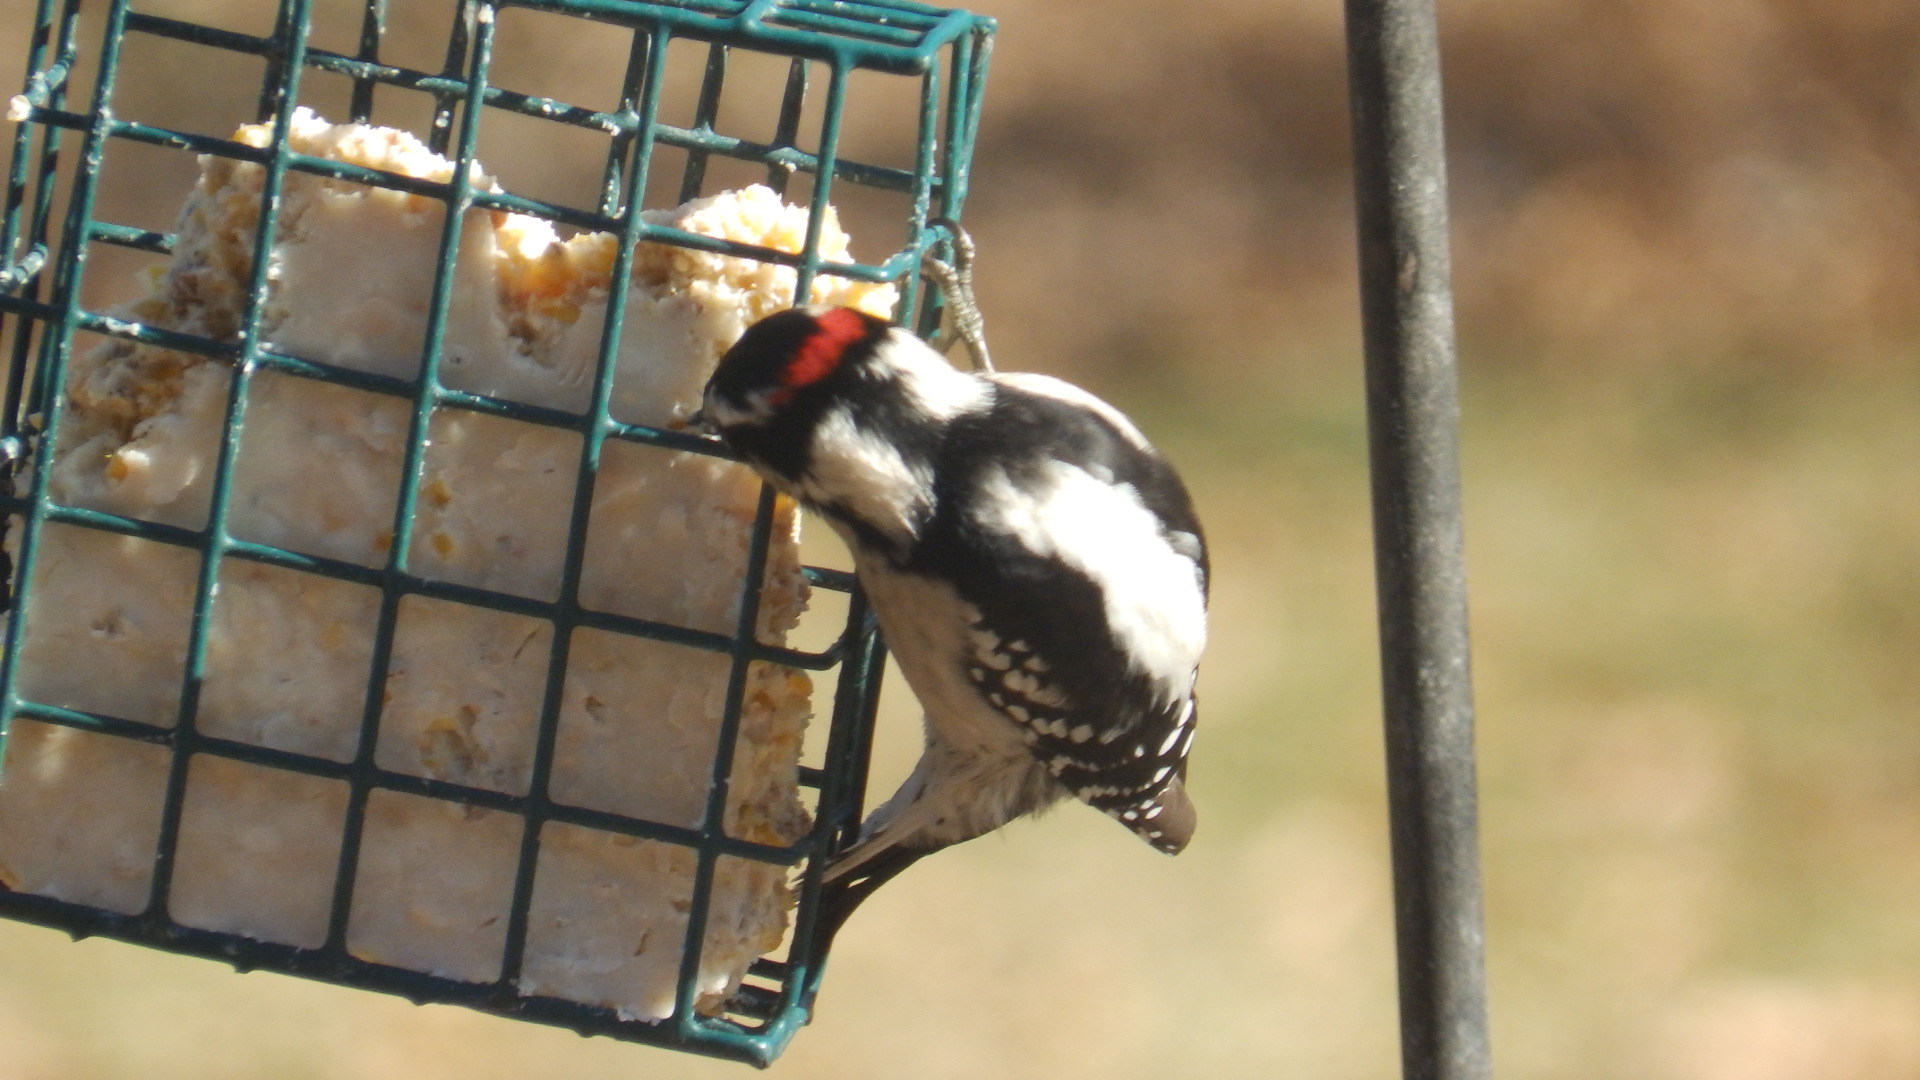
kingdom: Animalia
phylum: Chordata
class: Aves
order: Piciformes
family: Picidae
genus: Dryobates
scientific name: Dryobates pubescens
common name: Downy woodpecker
